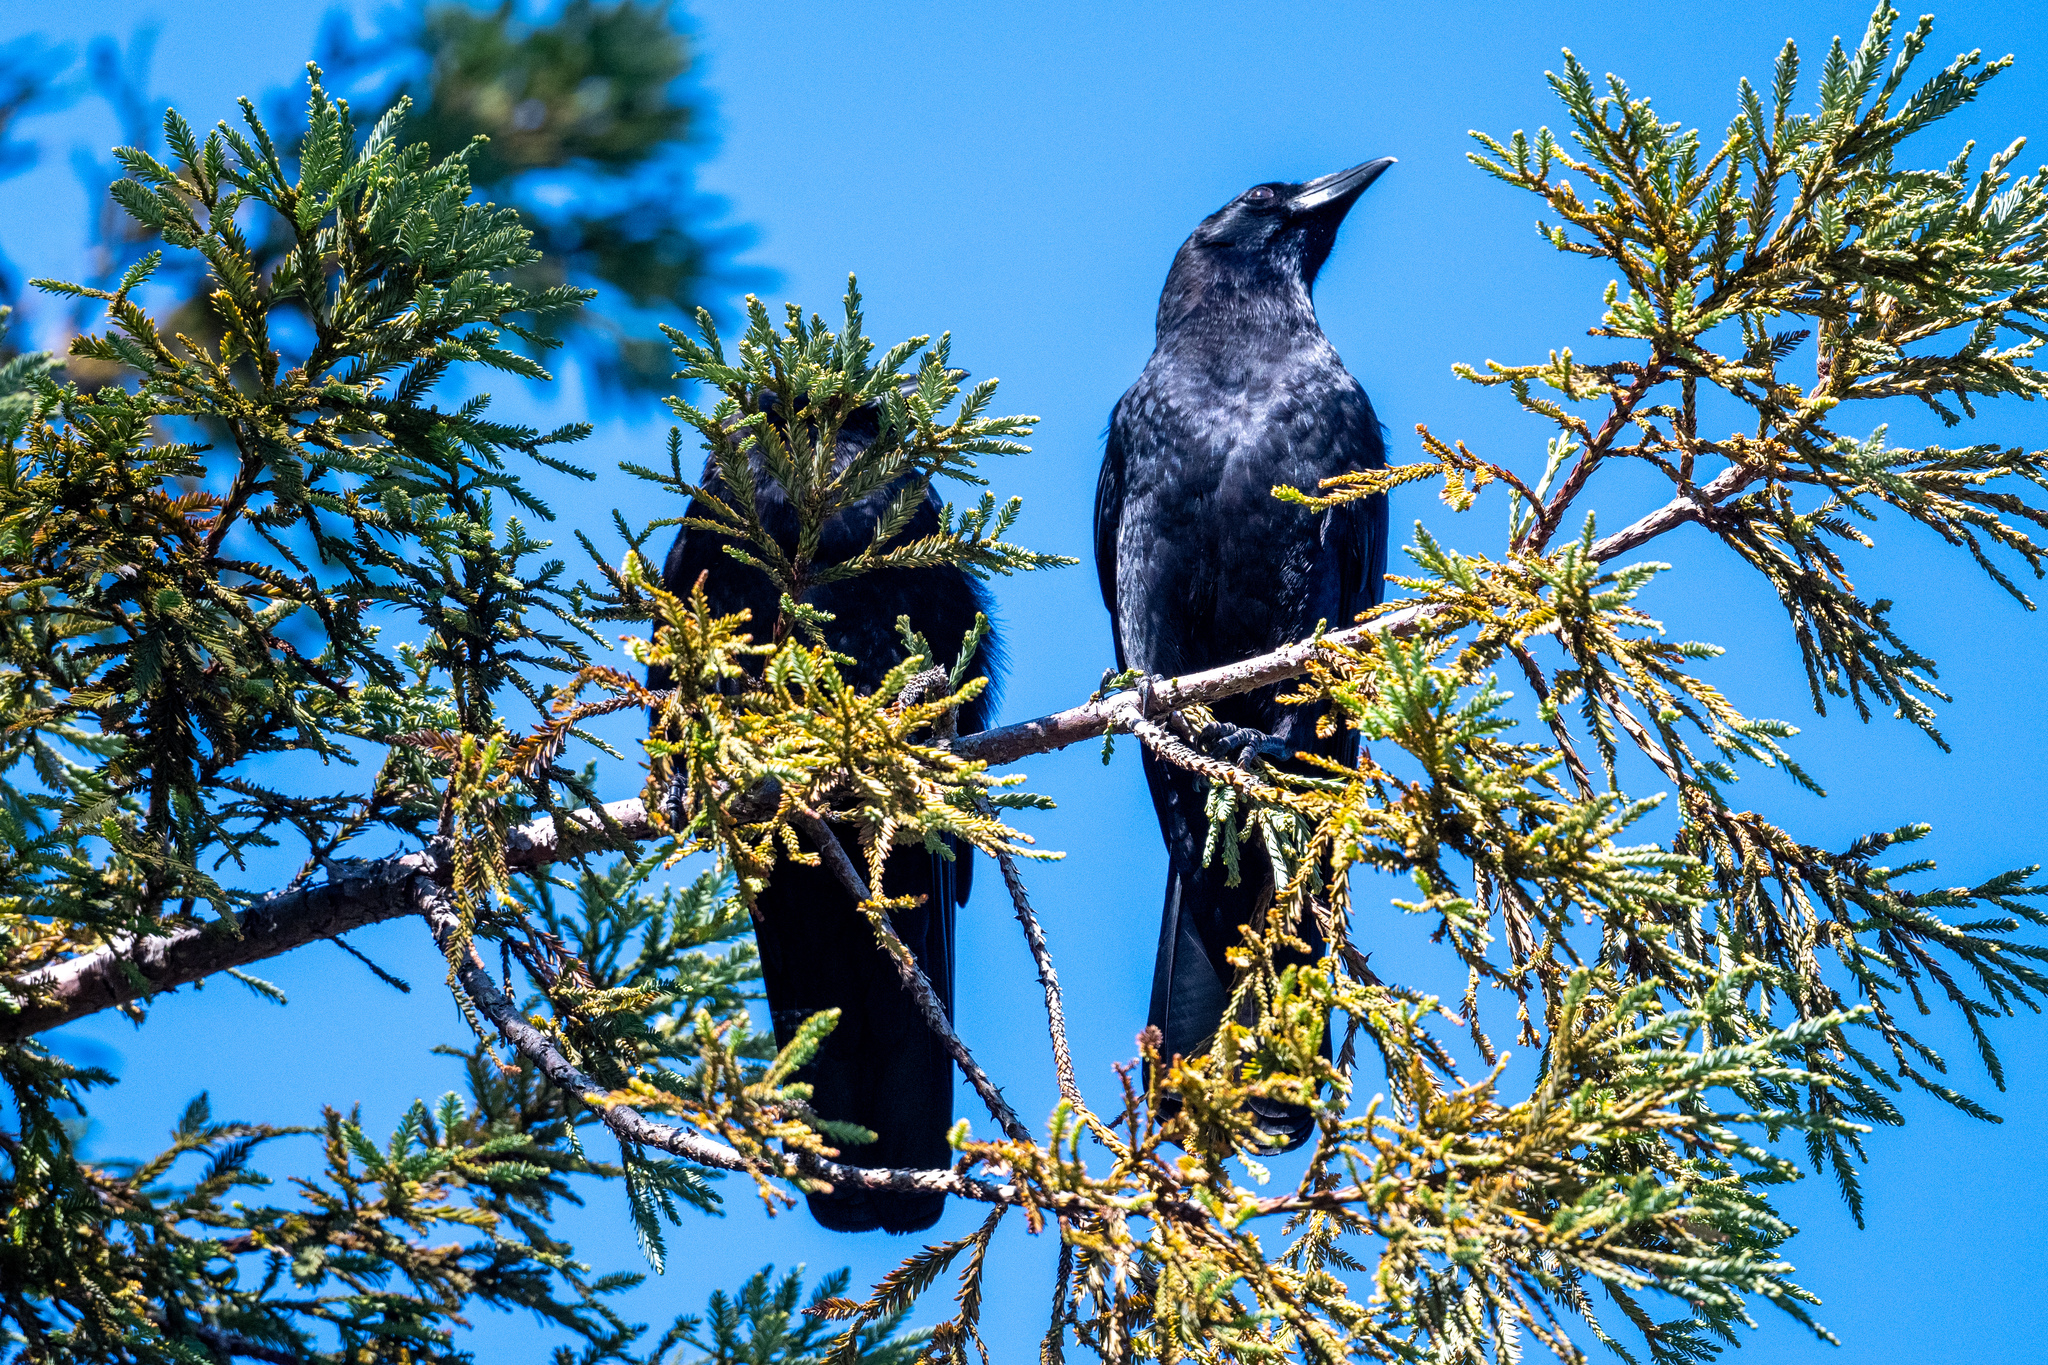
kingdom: Animalia
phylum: Chordata
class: Aves
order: Passeriformes
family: Corvidae
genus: Corvus
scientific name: Corvus brachyrhynchos
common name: American crow
